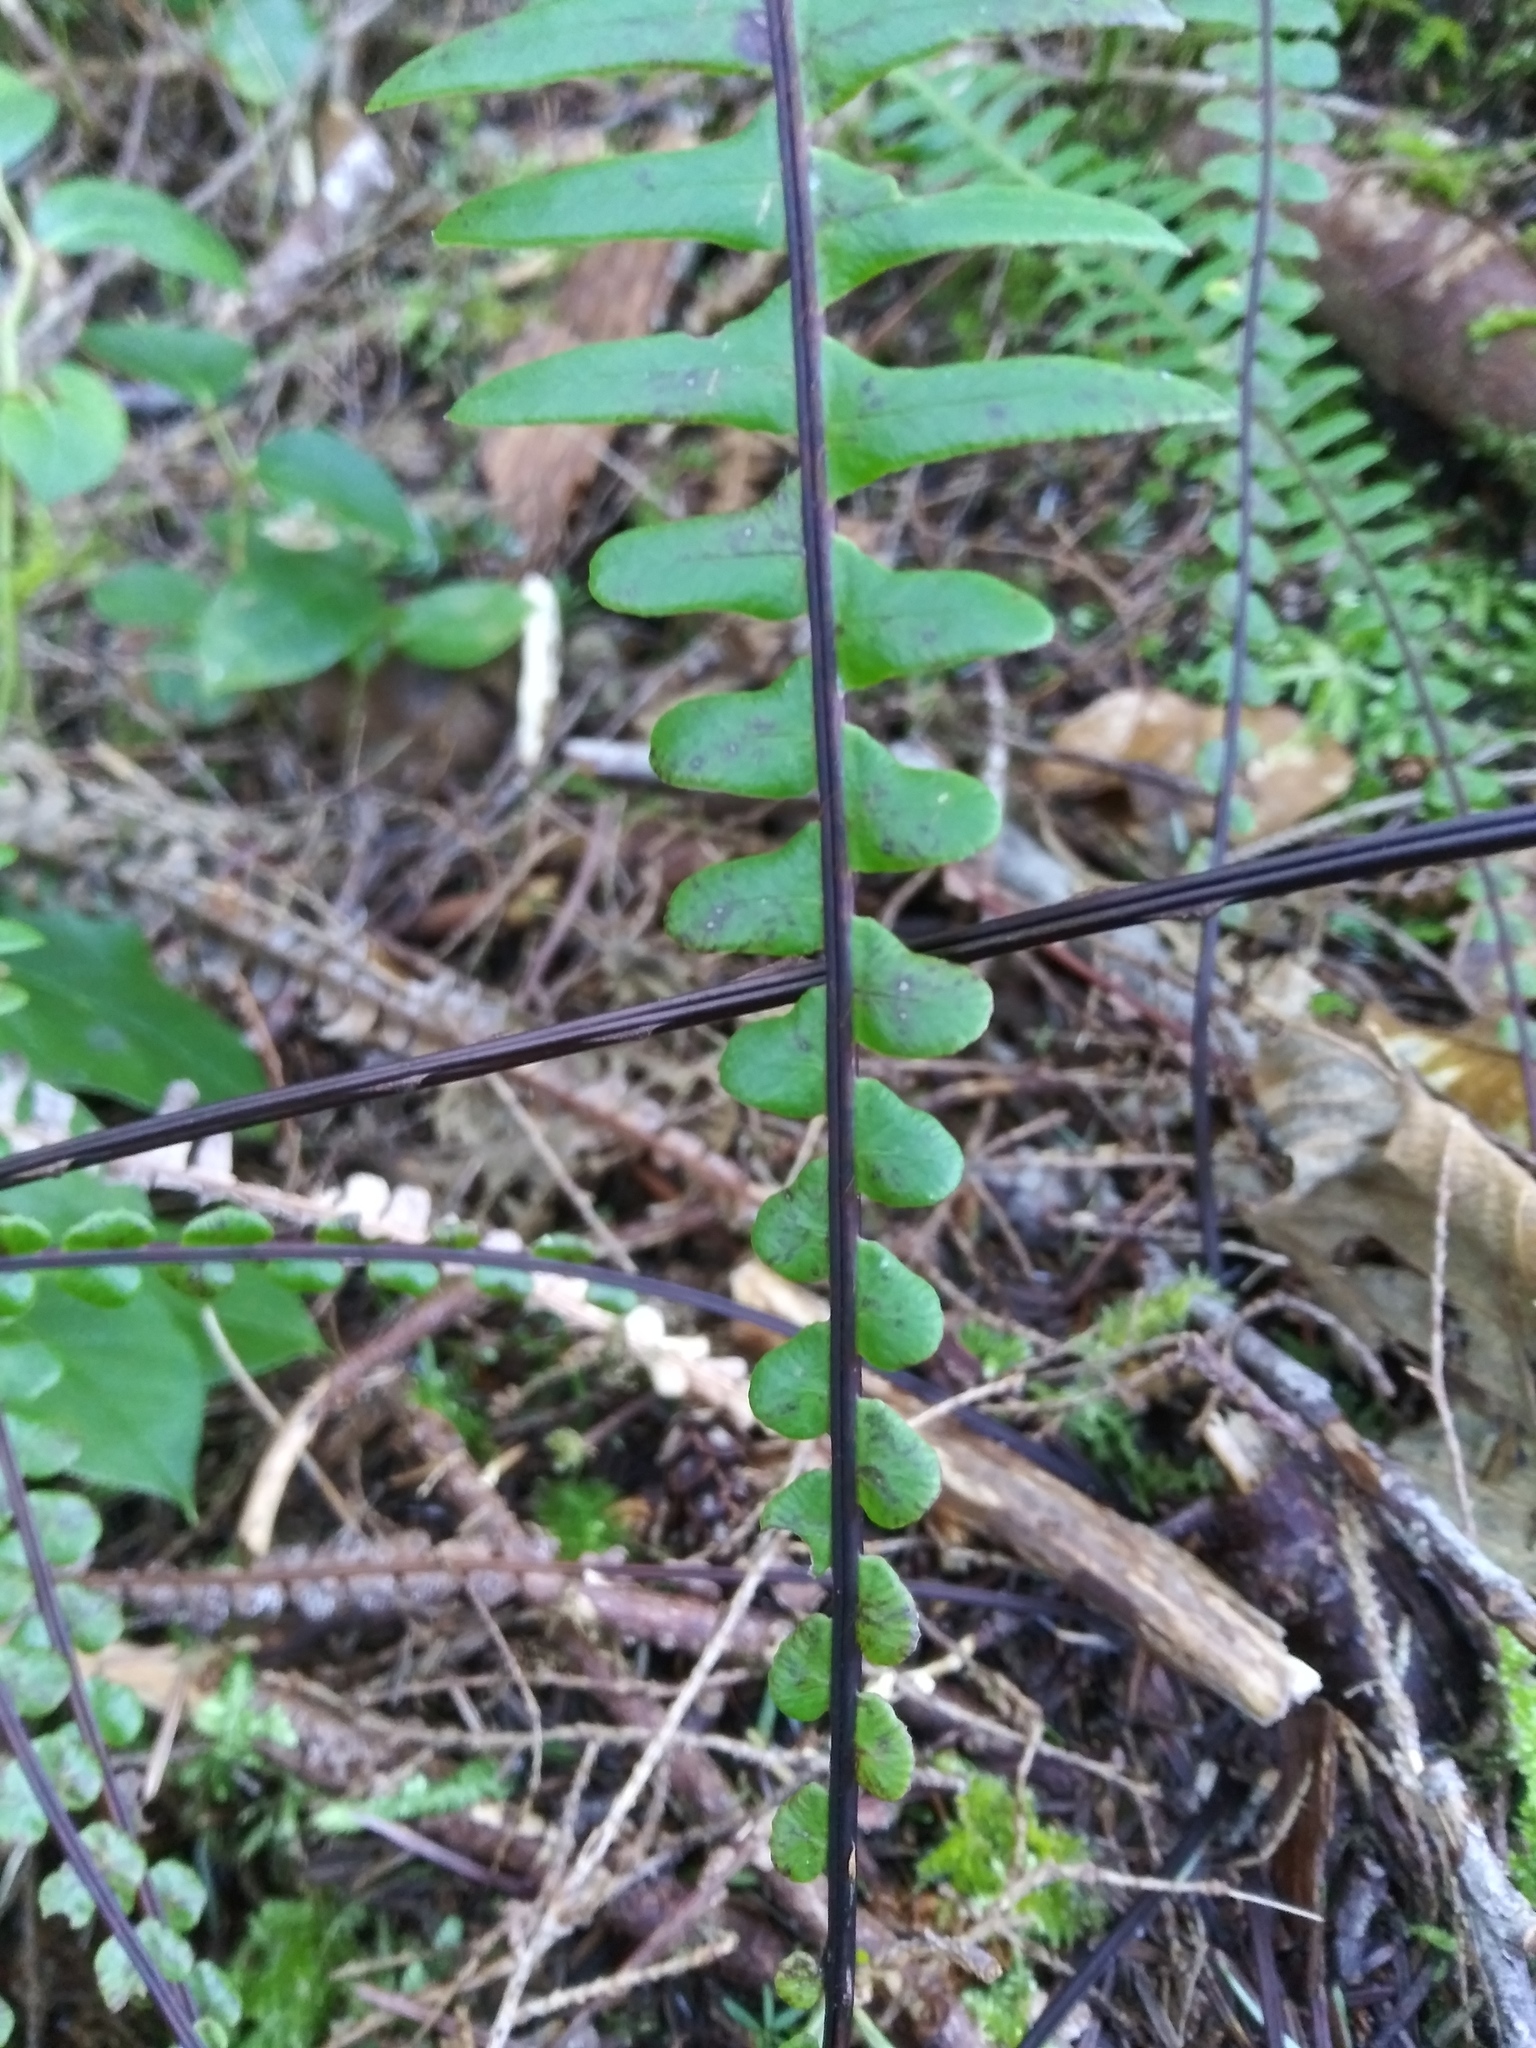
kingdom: Plantae
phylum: Tracheophyta
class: Polypodiopsida
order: Polypodiales
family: Blechnaceae
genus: Struthiopteris
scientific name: Struthiopteris spicant
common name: Deer fern
